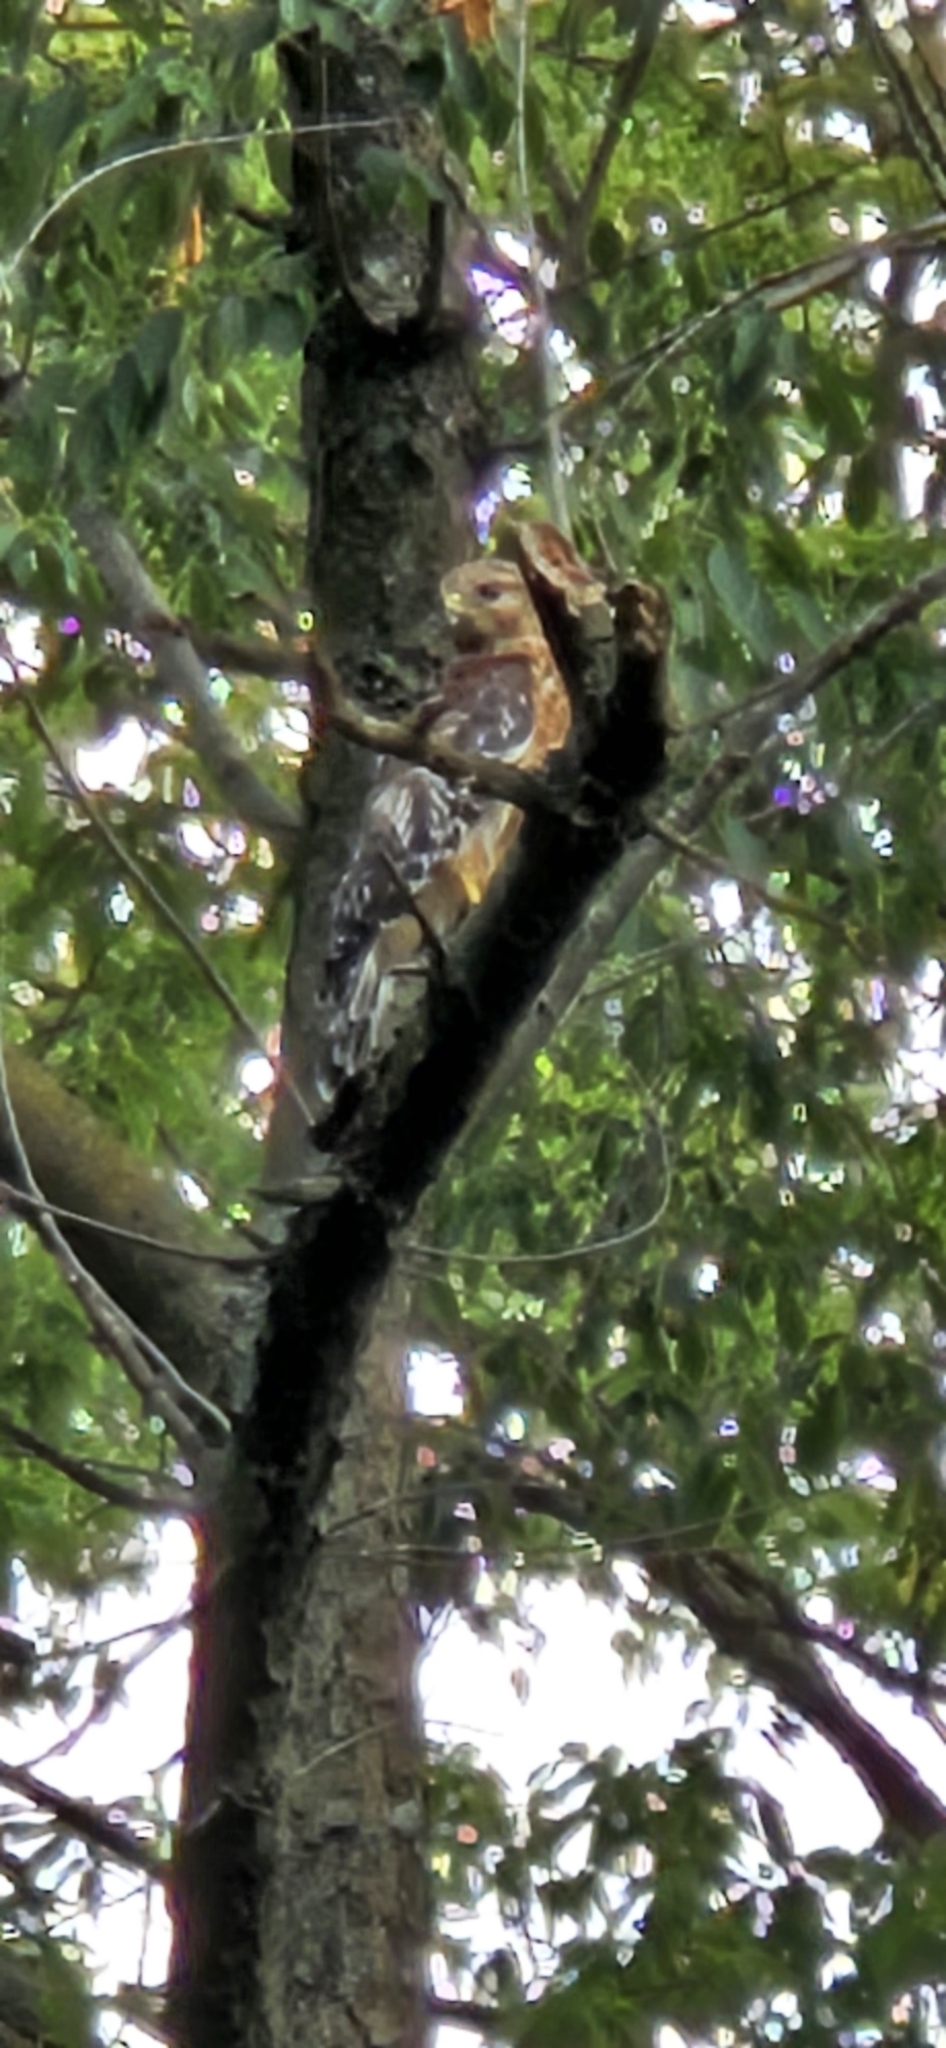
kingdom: Animalia
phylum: Chordata
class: Aves
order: Accipitriformes
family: Accipitridae
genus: Buteo
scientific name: Buteo lineatus
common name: Red-shouldered hawk
